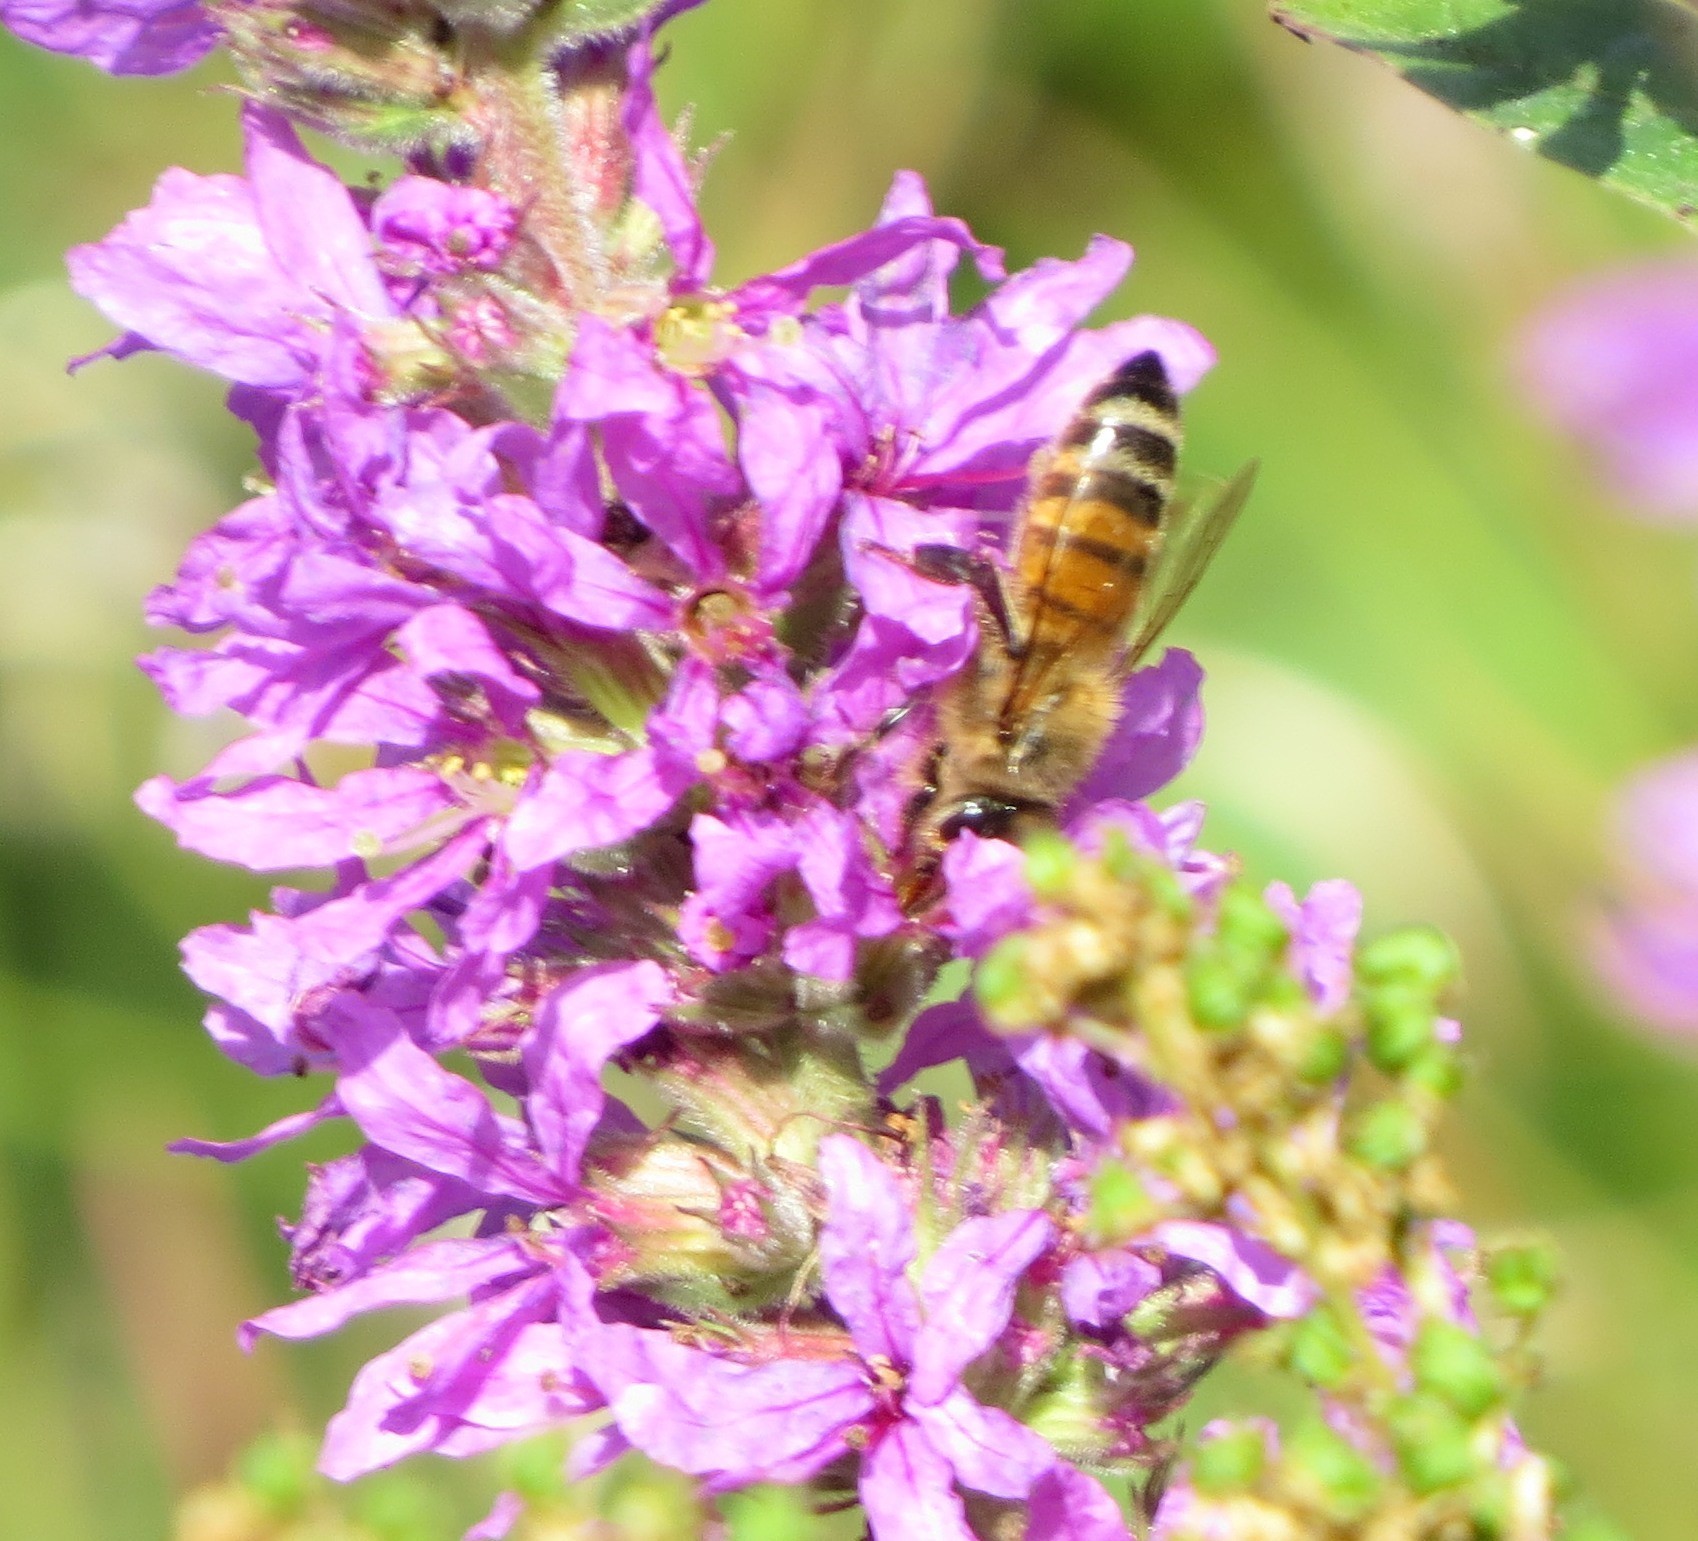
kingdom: Animalia
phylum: Arthropoda
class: Insecta
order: Hymenoptera
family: Apidae
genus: Apis
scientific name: Apis mellifera
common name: Honey bee
